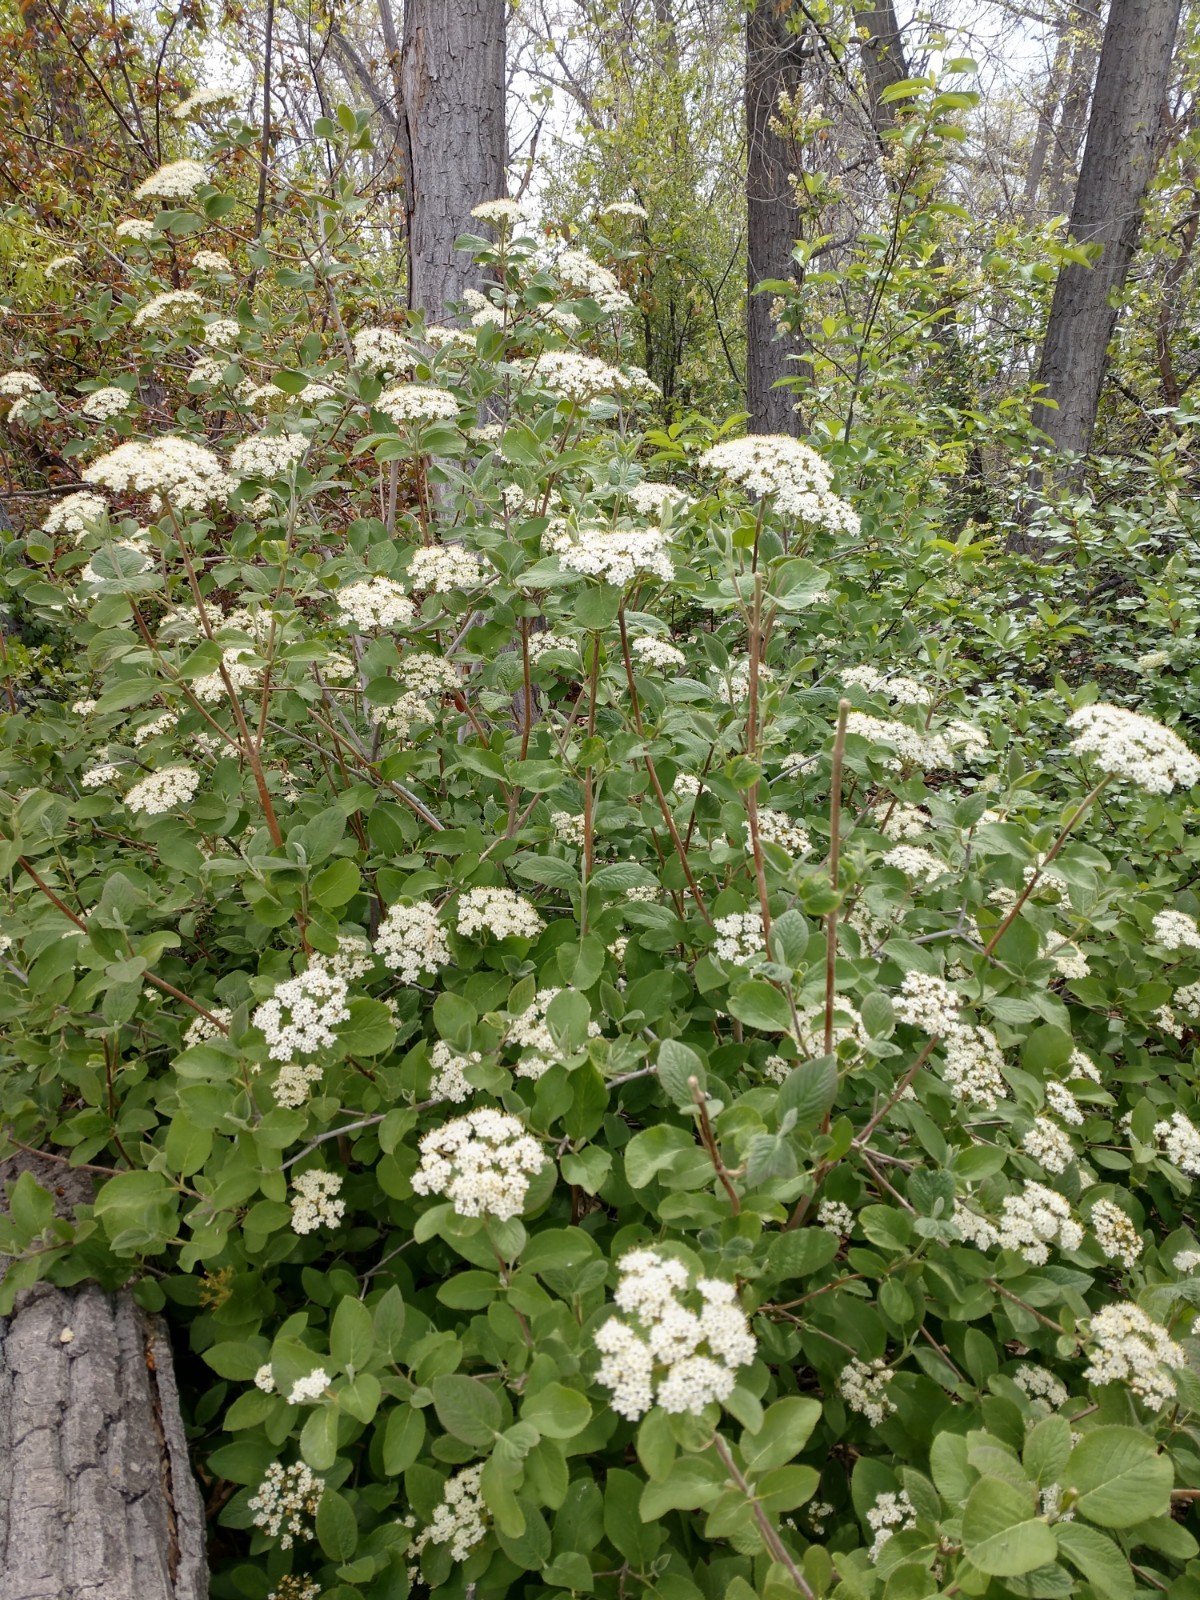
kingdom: Plantae
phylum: Tracheophyta
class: Magnoliopsida
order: Dipsacales
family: Viburnaceae
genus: Viburnum
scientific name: Viburnum lantana
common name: Wayfaring tree
